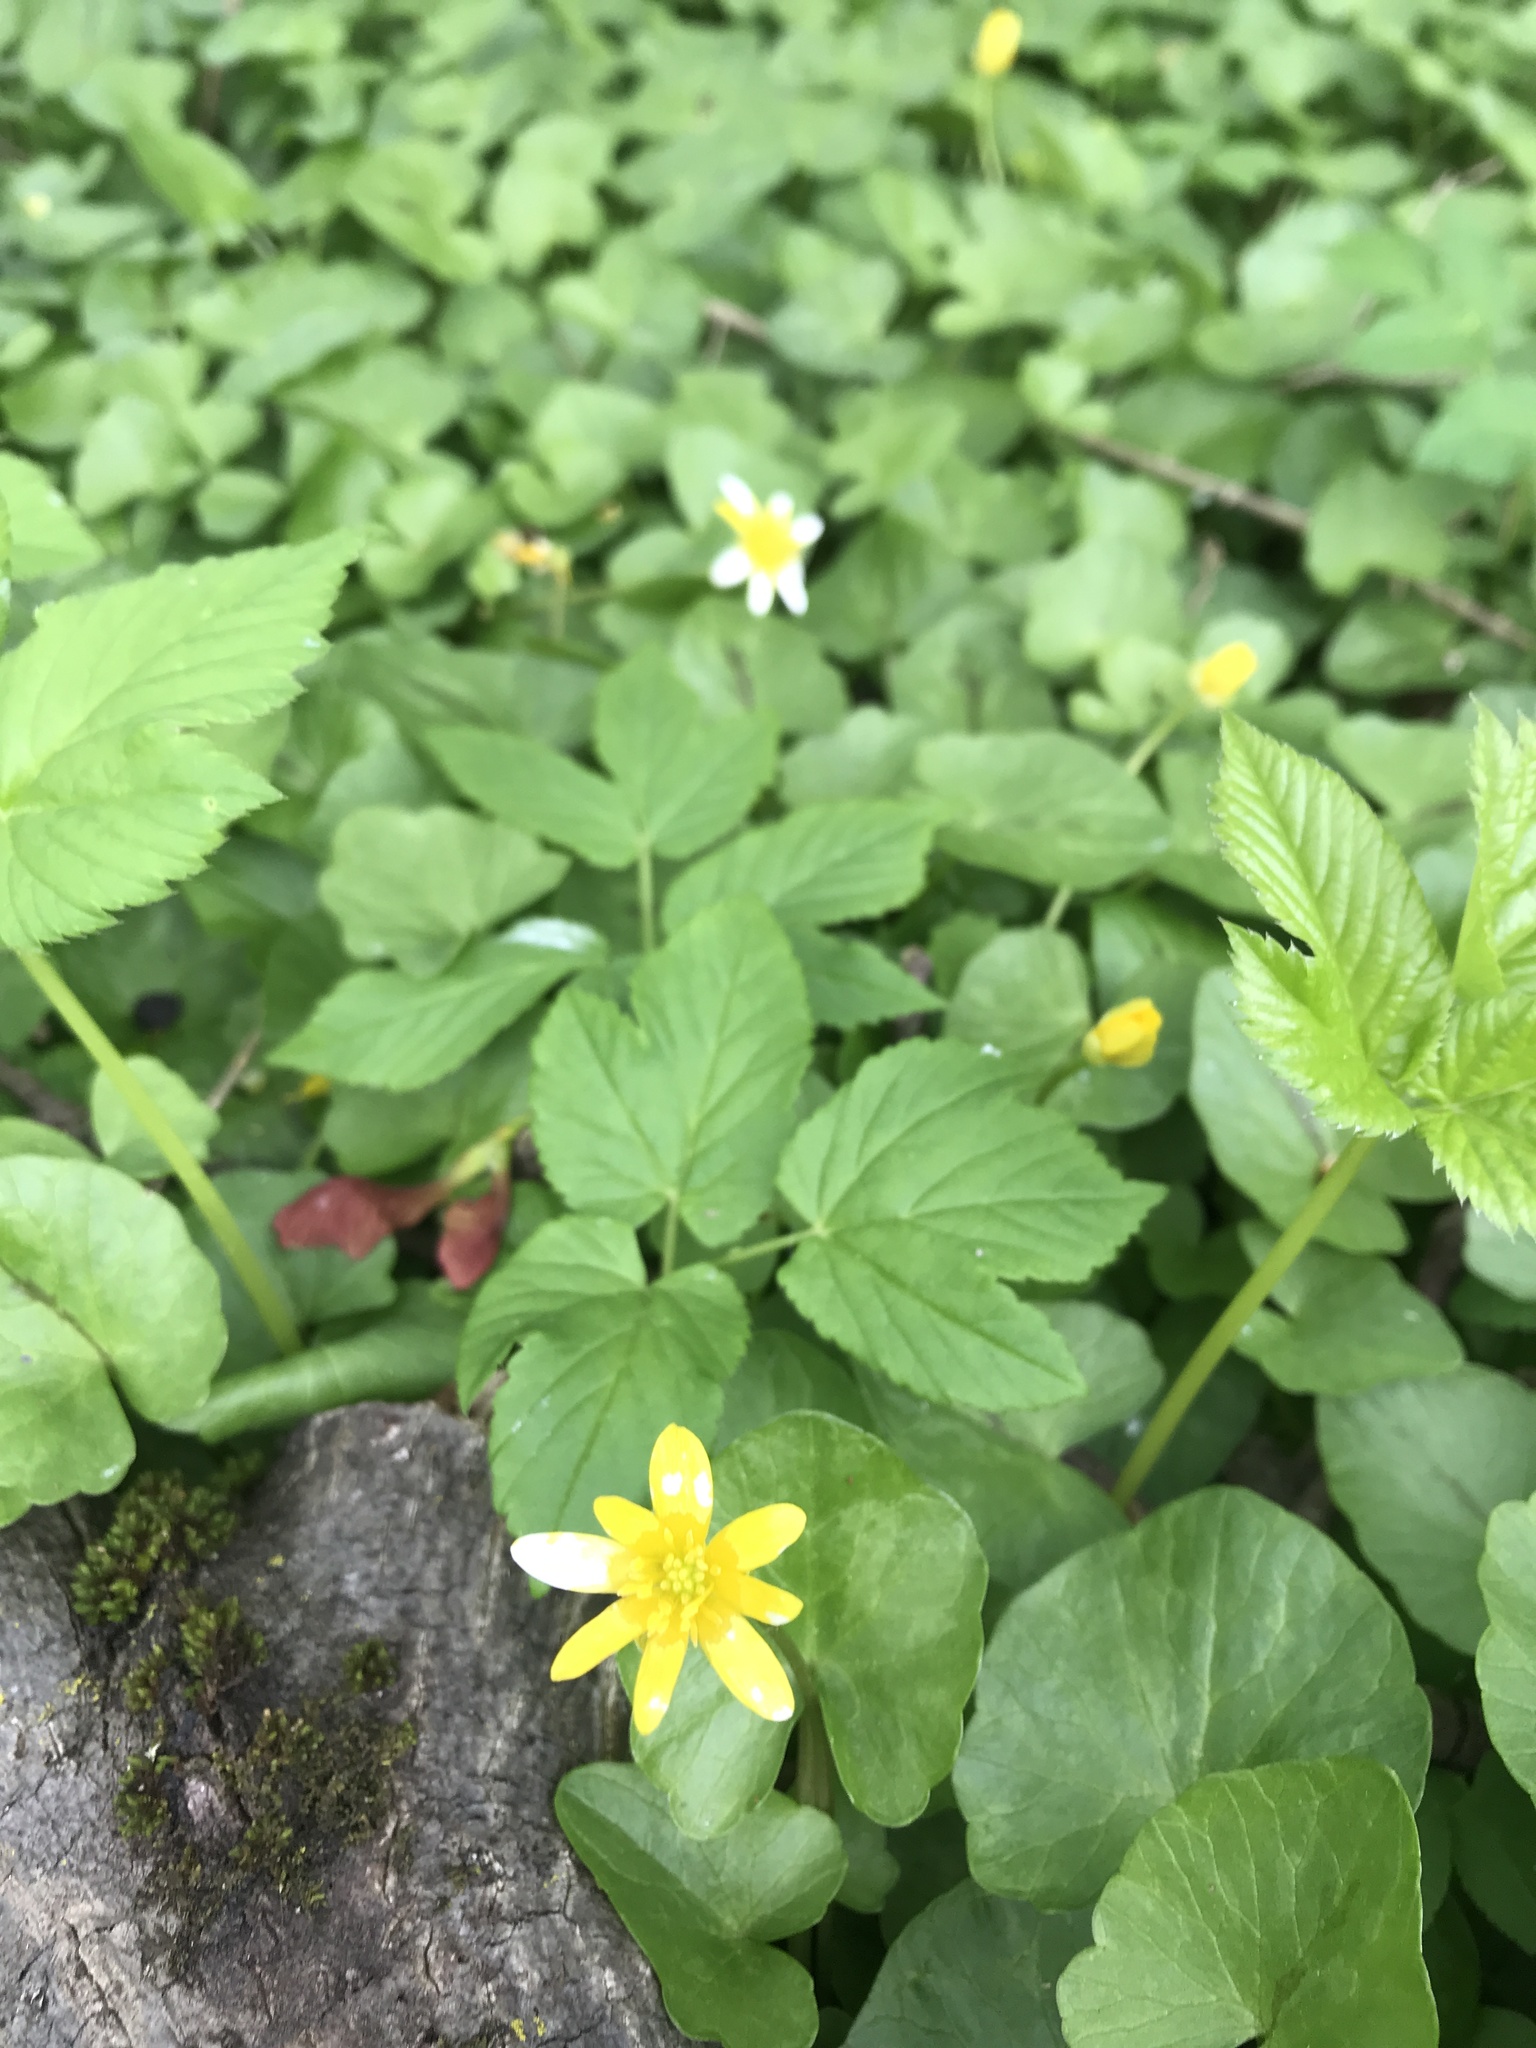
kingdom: Plantae
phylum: Tracheophyta
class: Magnoliopsida
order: Ranunculales
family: Ranunculaceae
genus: Ficaria
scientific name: Ficaria verna
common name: Lesser celandine
